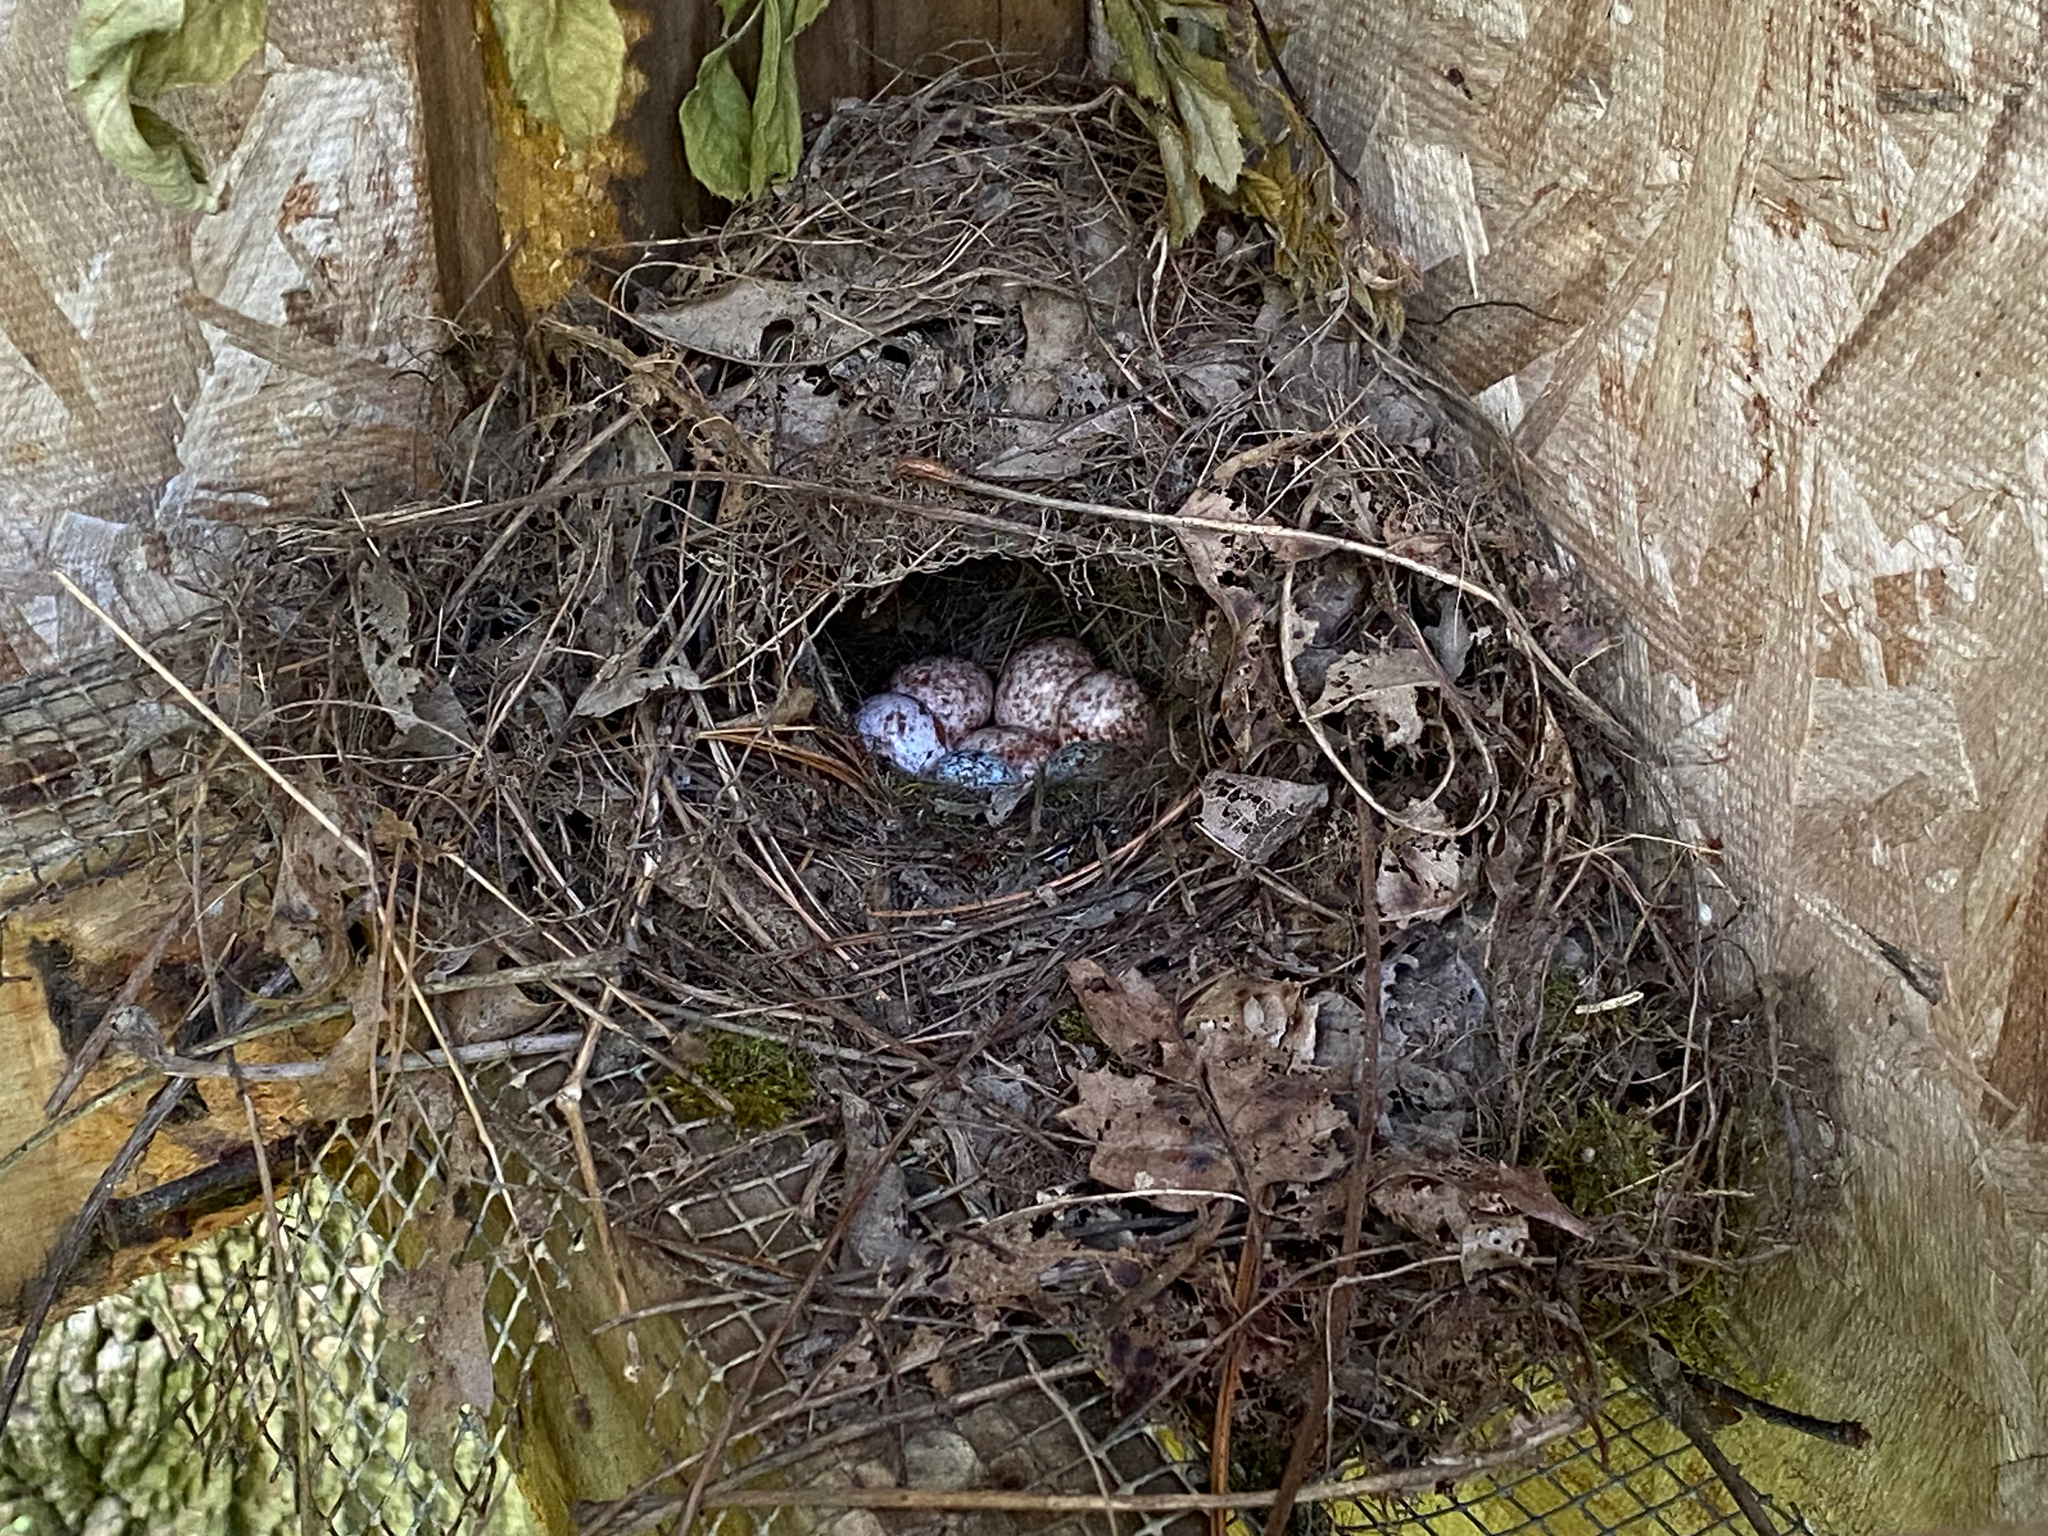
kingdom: Animalia
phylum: Chordata
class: Aves
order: Passeriformes
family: Troglodytidae
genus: Thryothorus
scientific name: Thryothorus ludovicianus
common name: Carolina wren
